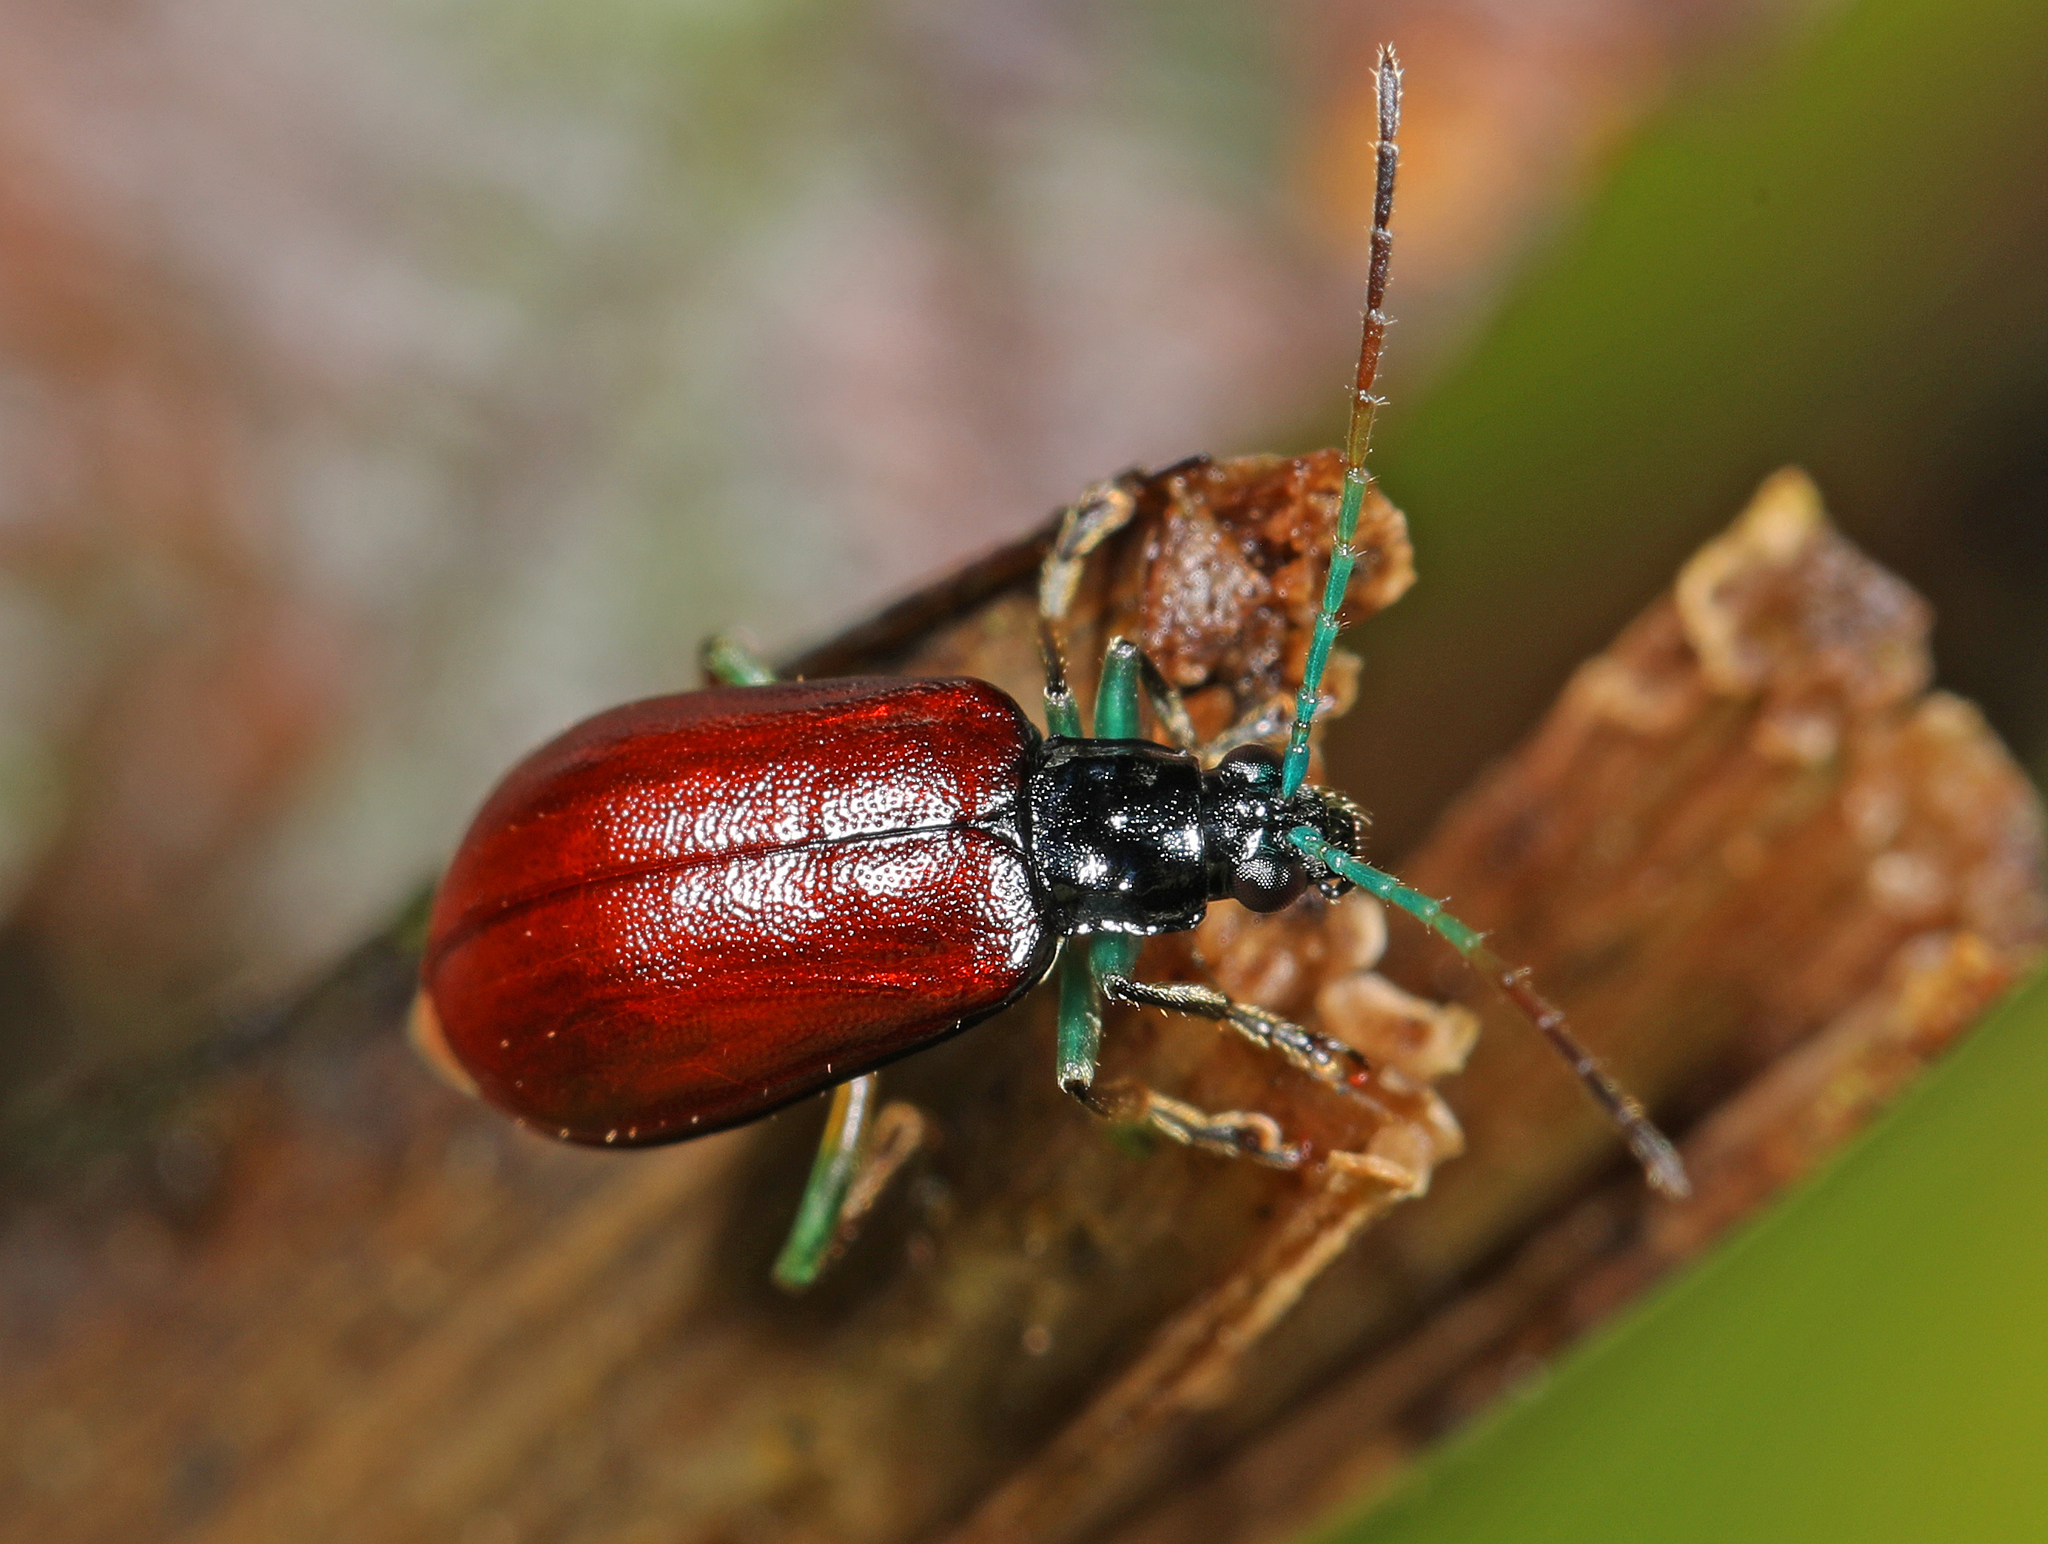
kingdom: Animalia
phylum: Arthropoda
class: Insecta
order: Coleoptera
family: Chrysomelidae
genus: Cochabamba
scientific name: Cochabamba
